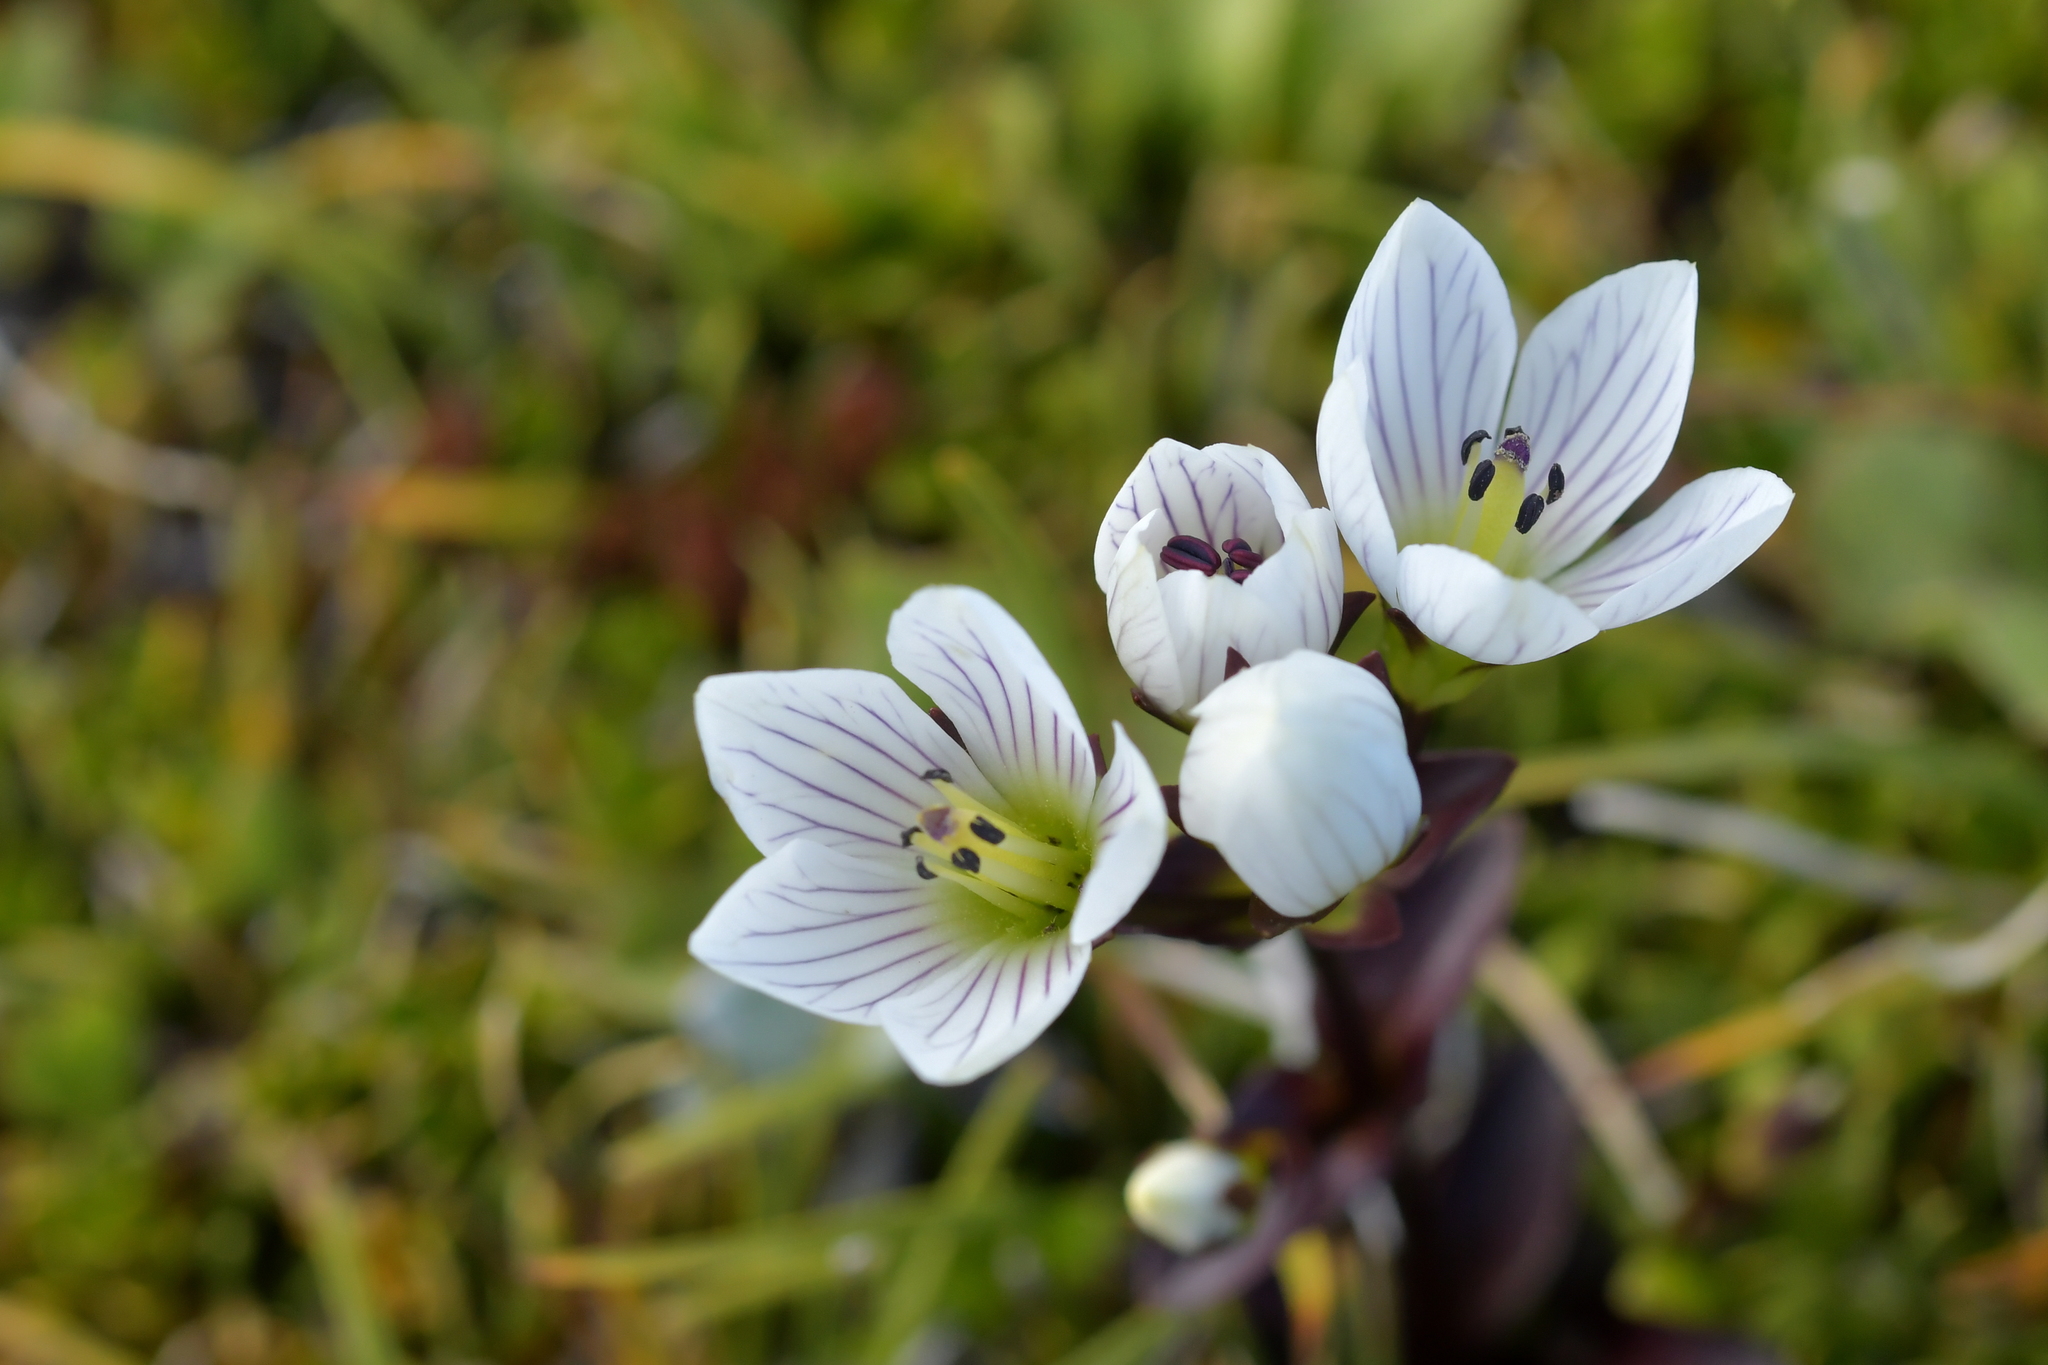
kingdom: Plantae
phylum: Tracheophyta
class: Magnoliopsida
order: Gentianales
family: Gentianaceae
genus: Gentianella
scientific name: Gentianella bellidifolia
